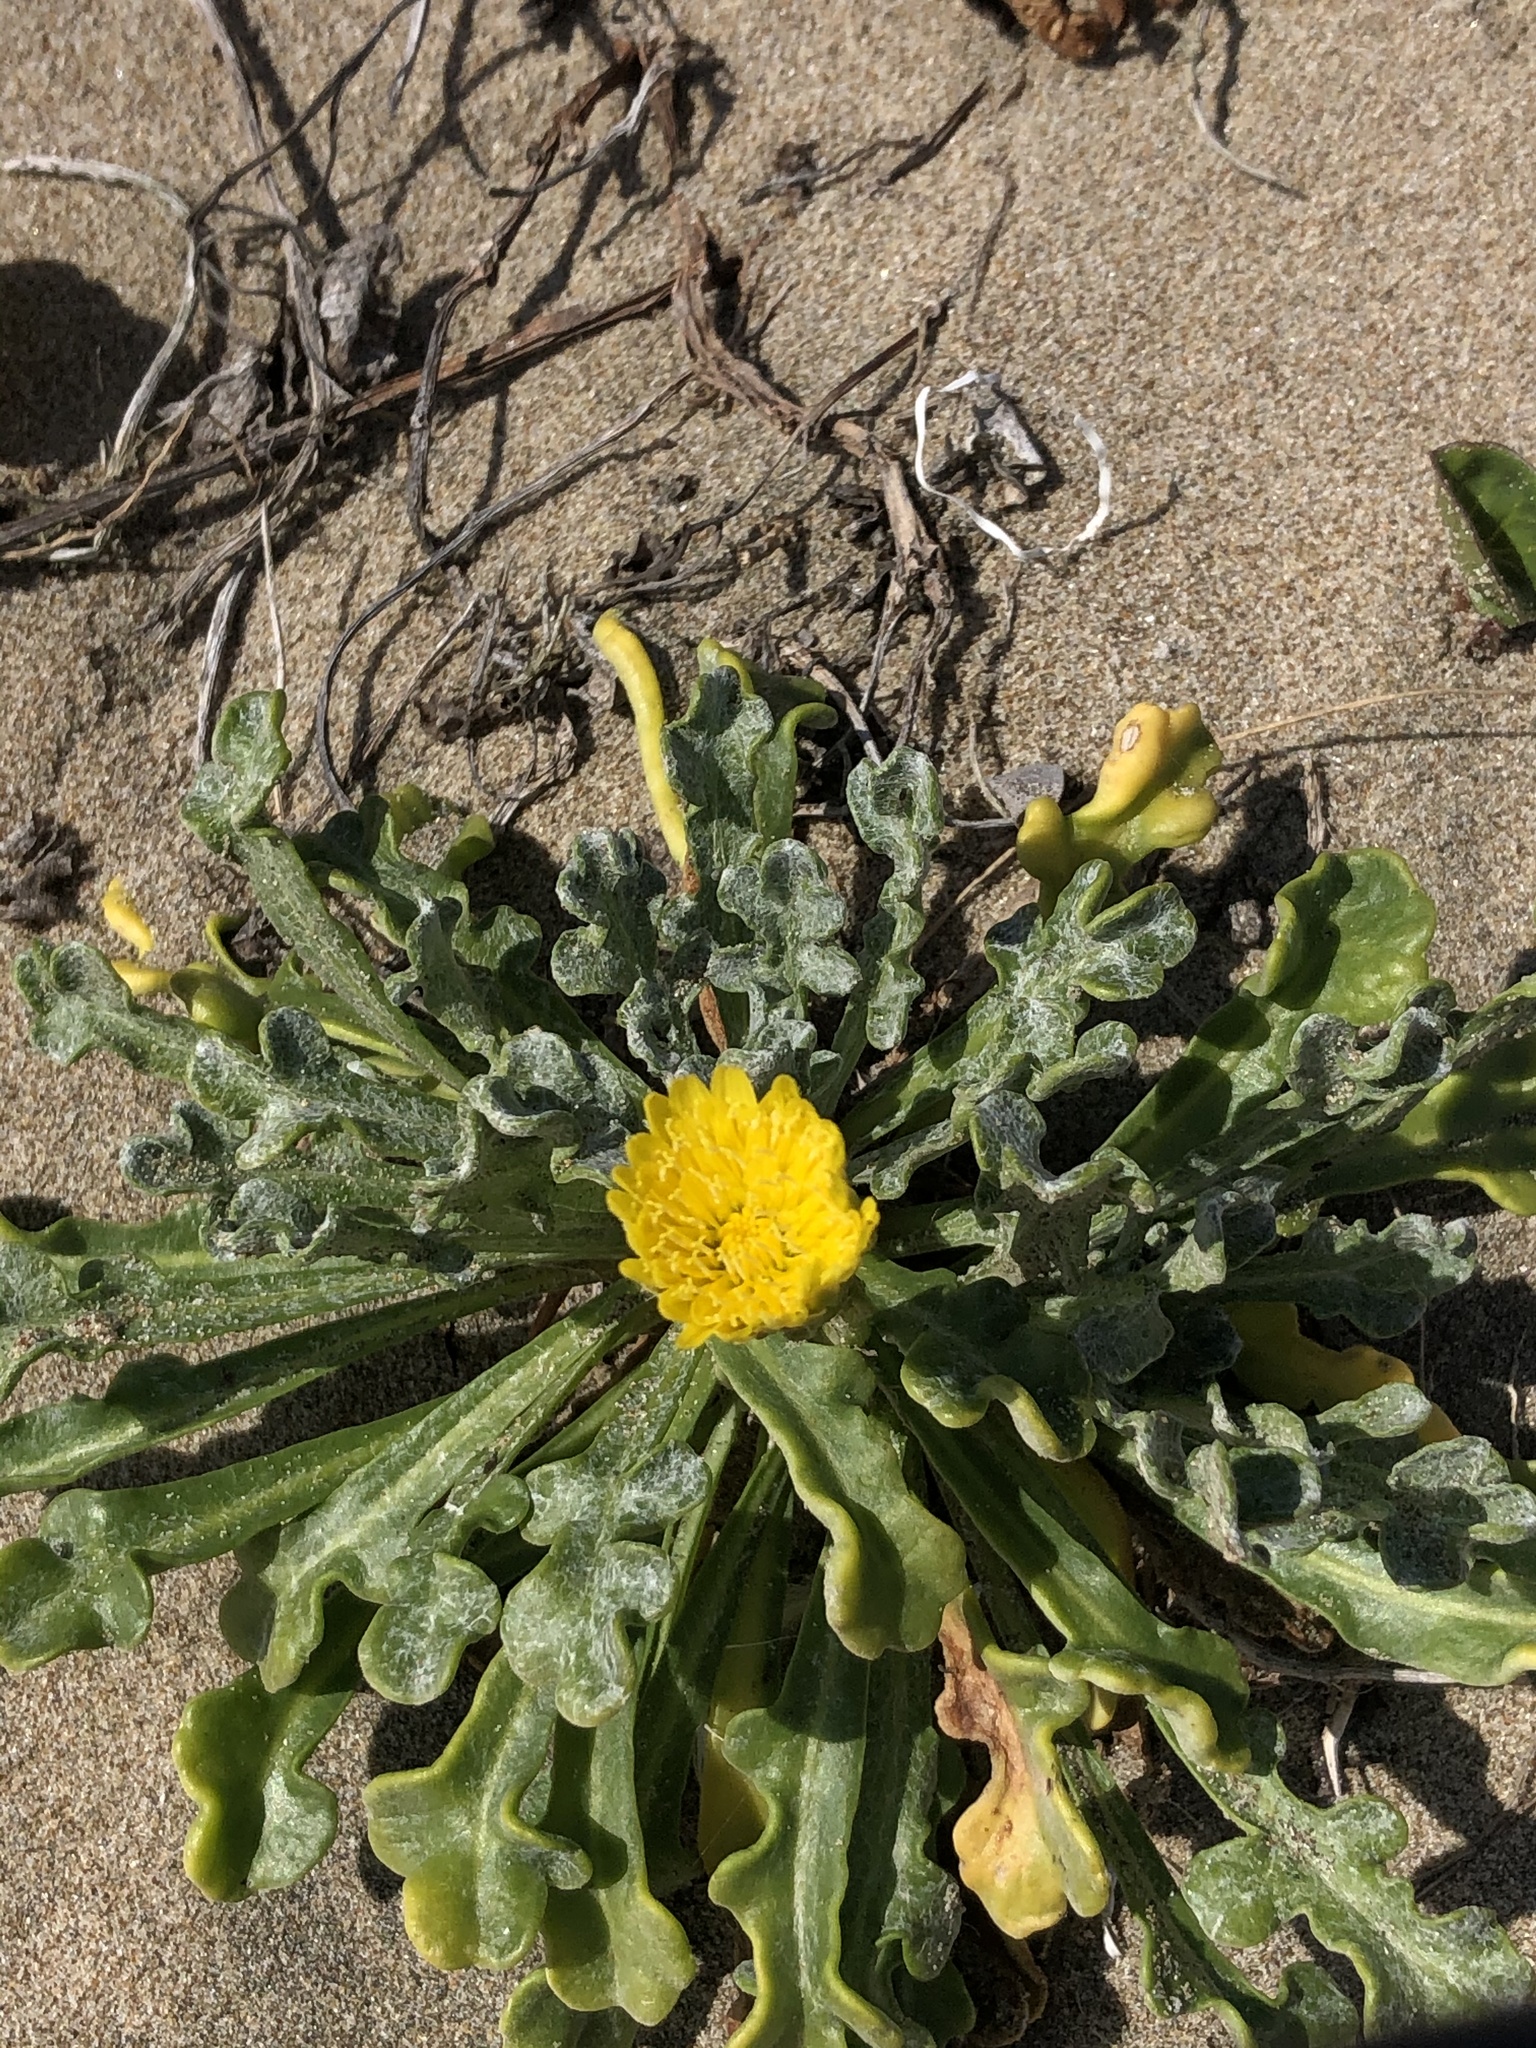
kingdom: Plantae
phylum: Tracheophyta
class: Magnoliopsida
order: Asterales
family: Asteraceae
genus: Malacothrix
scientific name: Malacothrix incana
